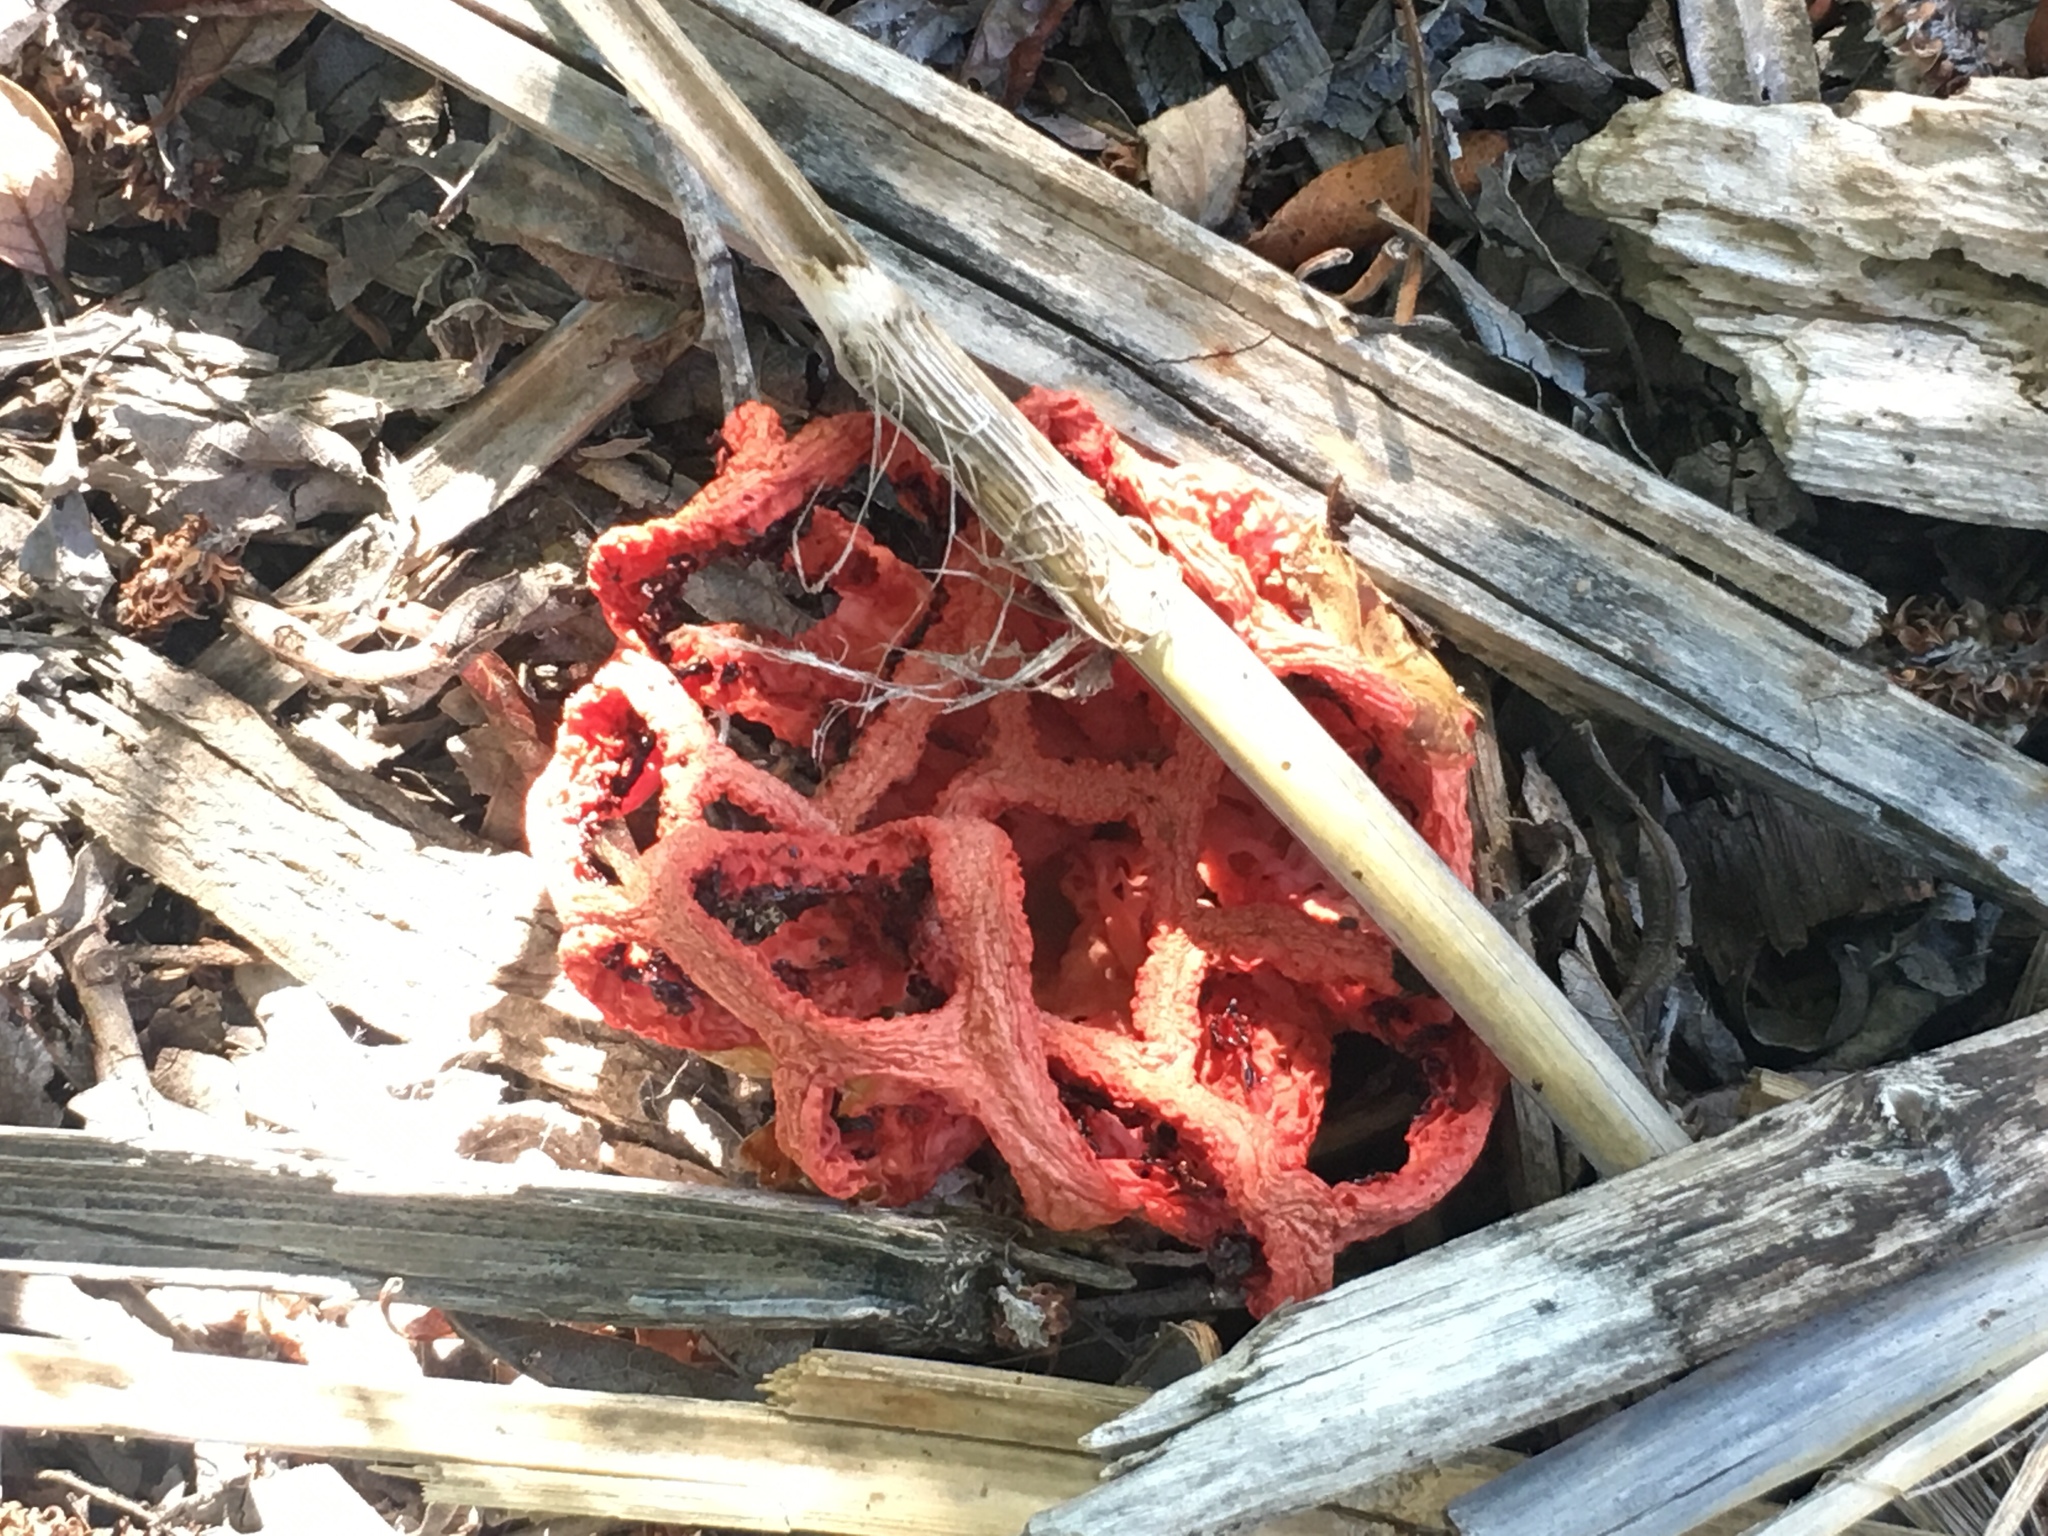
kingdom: Fungi
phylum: Basidiomycota
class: Agaricomycetes
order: Phallales
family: Phallaceae
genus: Clathrus
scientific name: Clathrus ruber
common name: Red cage
